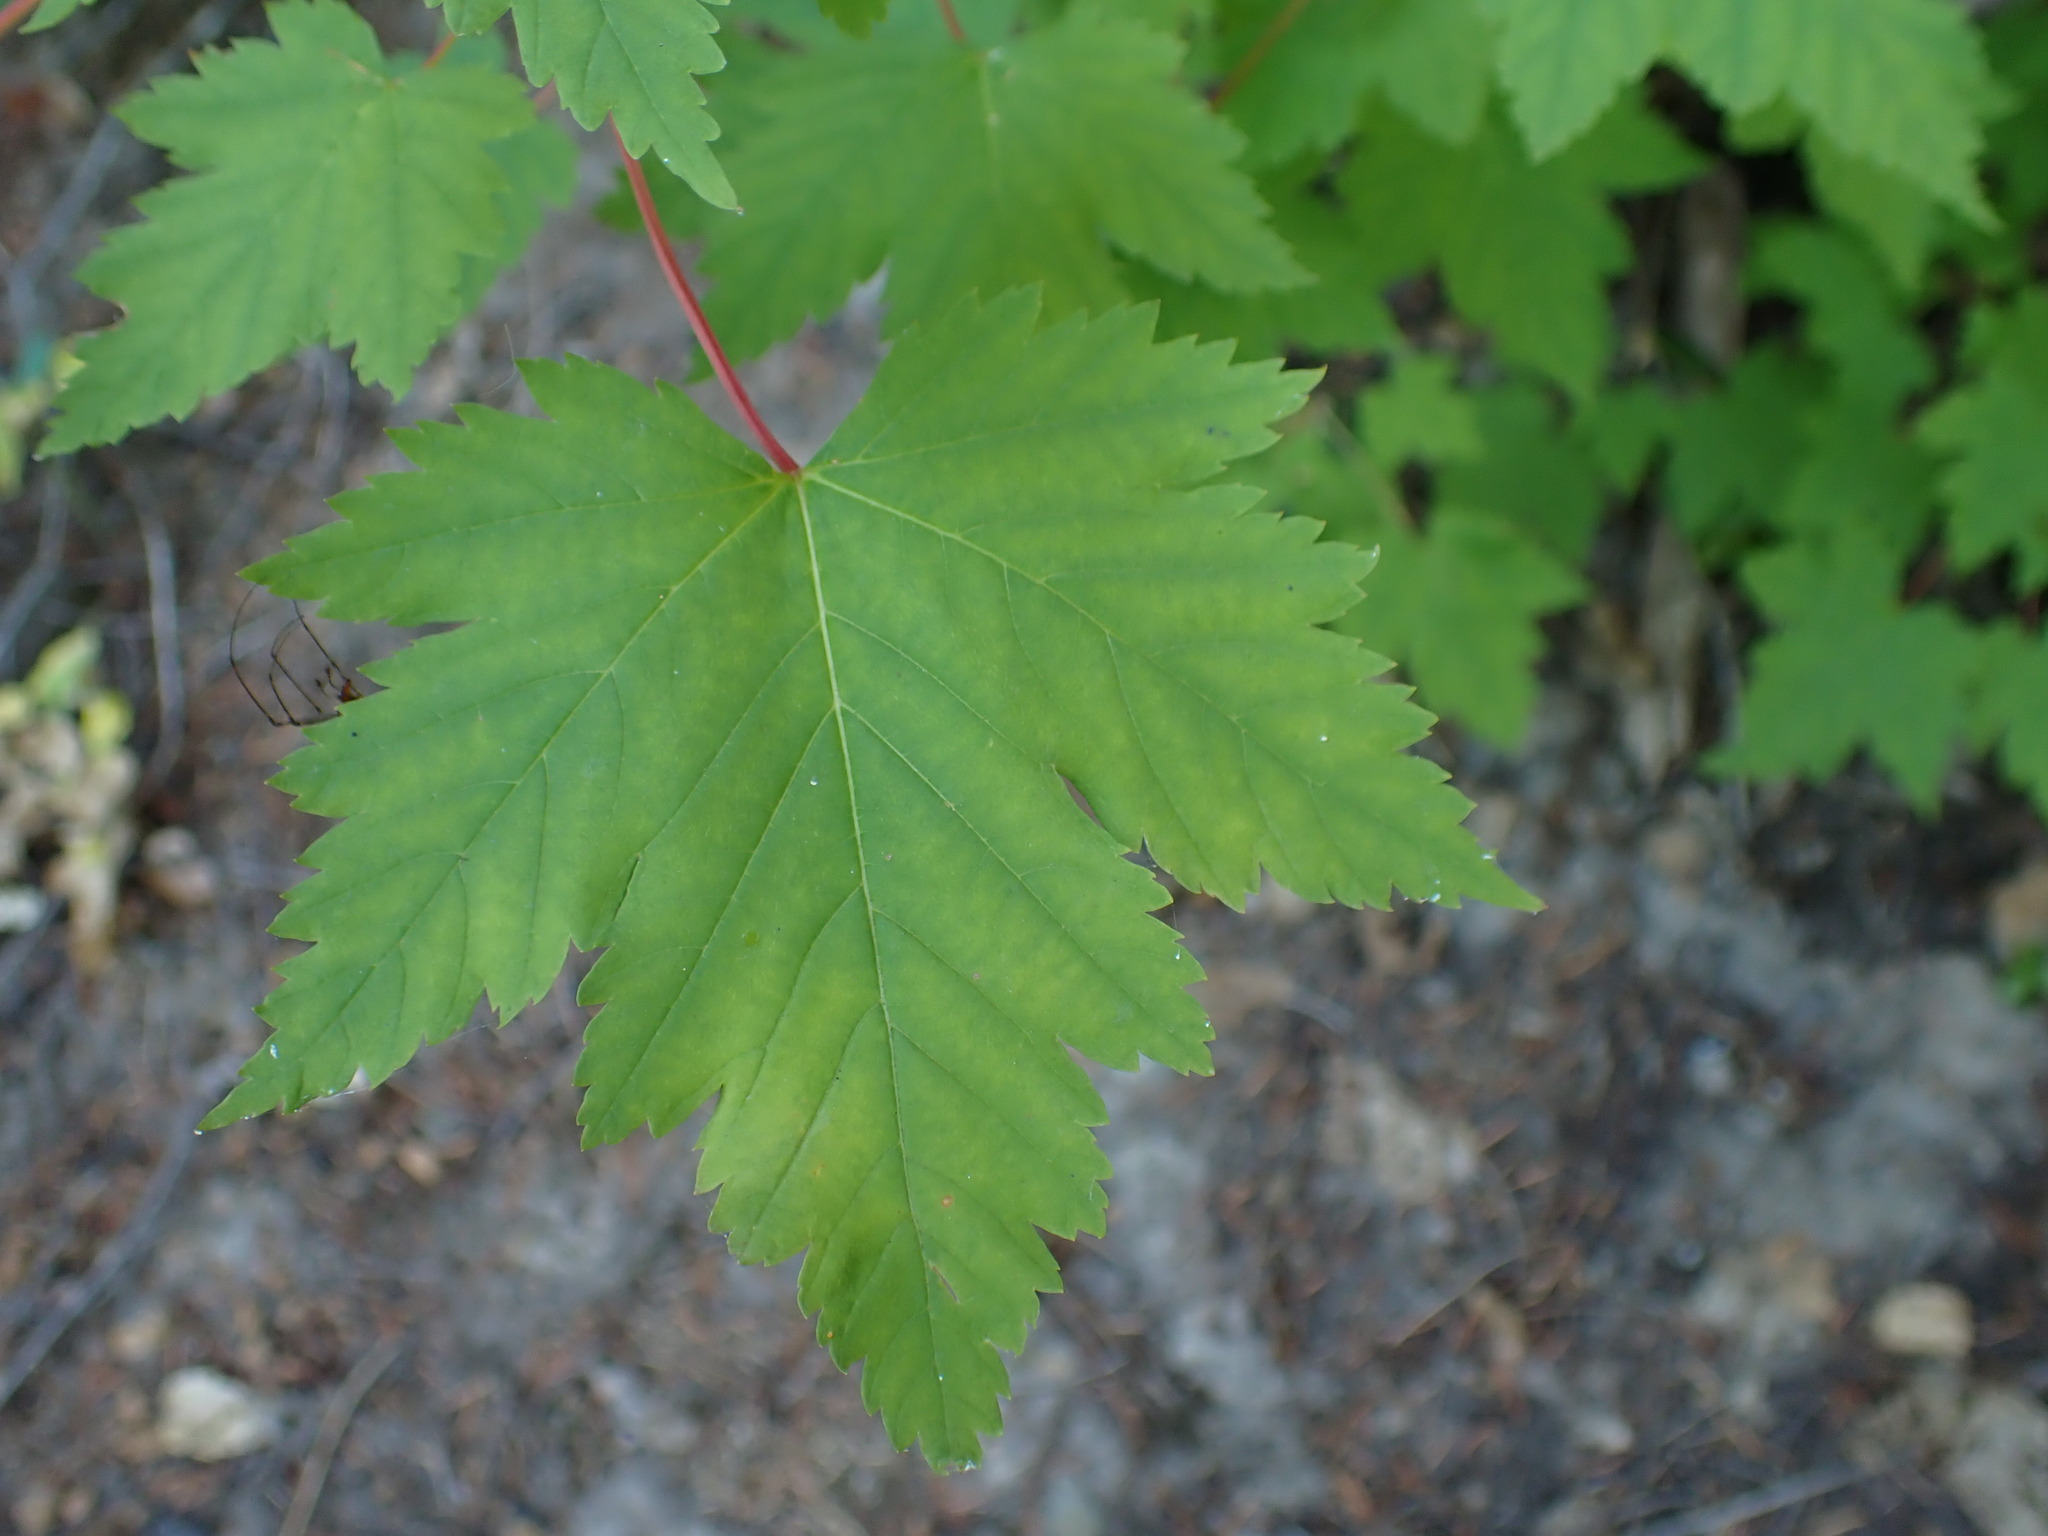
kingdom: Plantae
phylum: Tracheophyta
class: Magnoliopsida
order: Sapindales
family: Sapindaceae
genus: Acer
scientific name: Acer glabrum
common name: Rocky mountain maple
